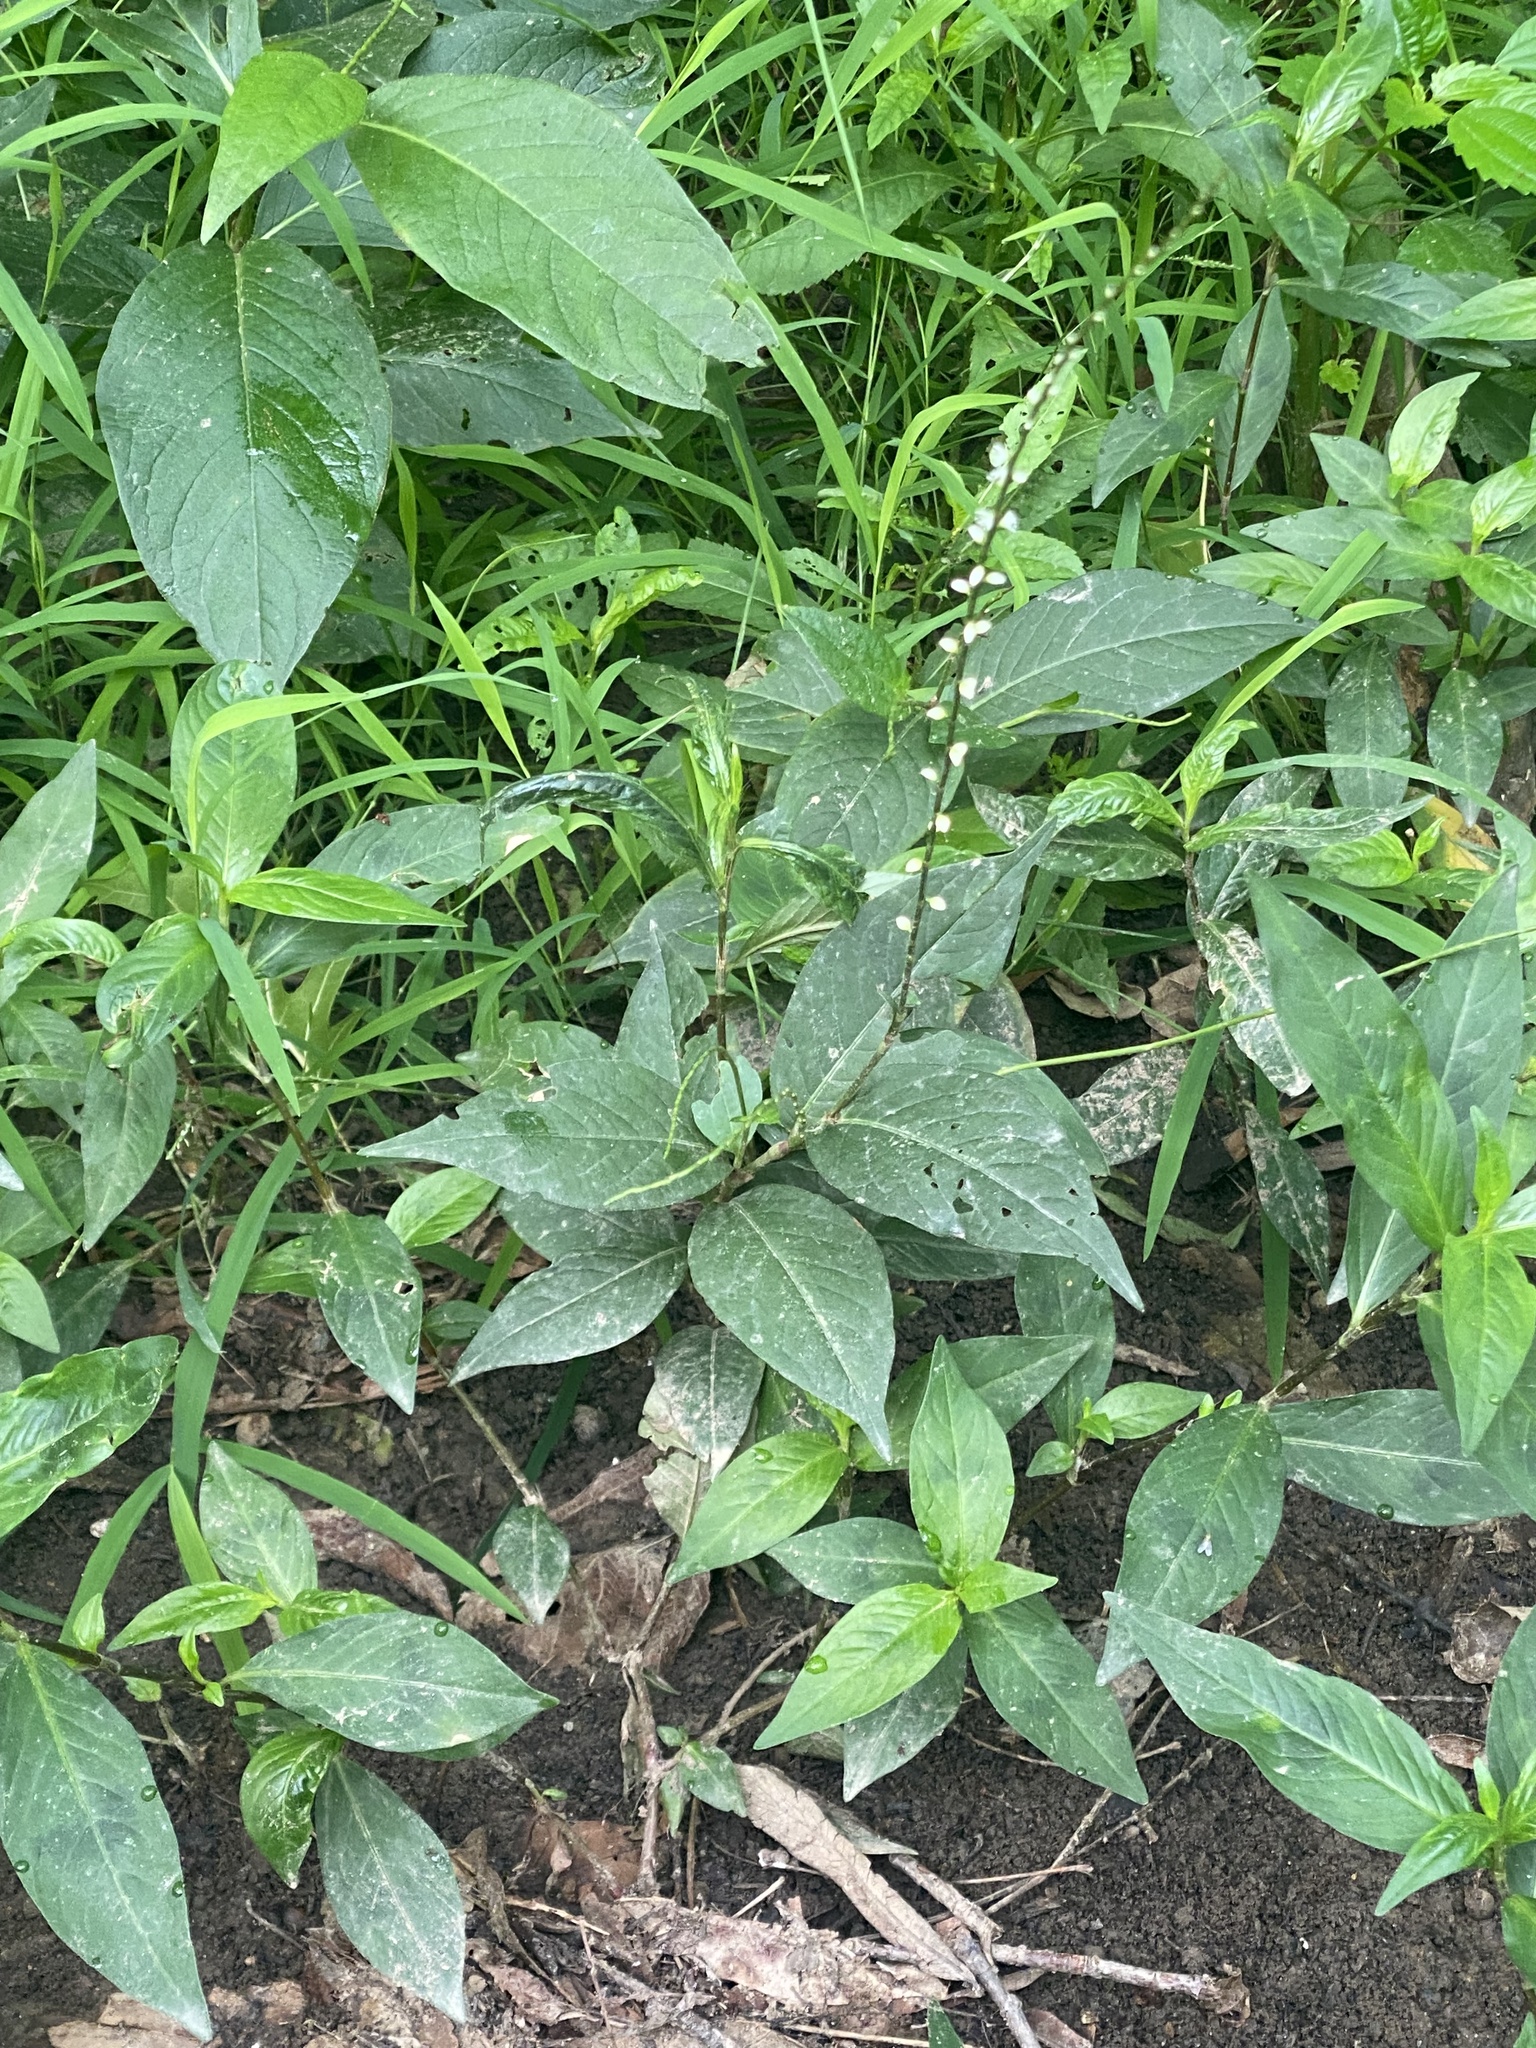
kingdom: Plantae
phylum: Tracheophyta
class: Magnoliopsida
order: Caryophyllales
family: Polygonaceae
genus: Persicaria
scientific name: Persicaria virginiana
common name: Jumpseed
